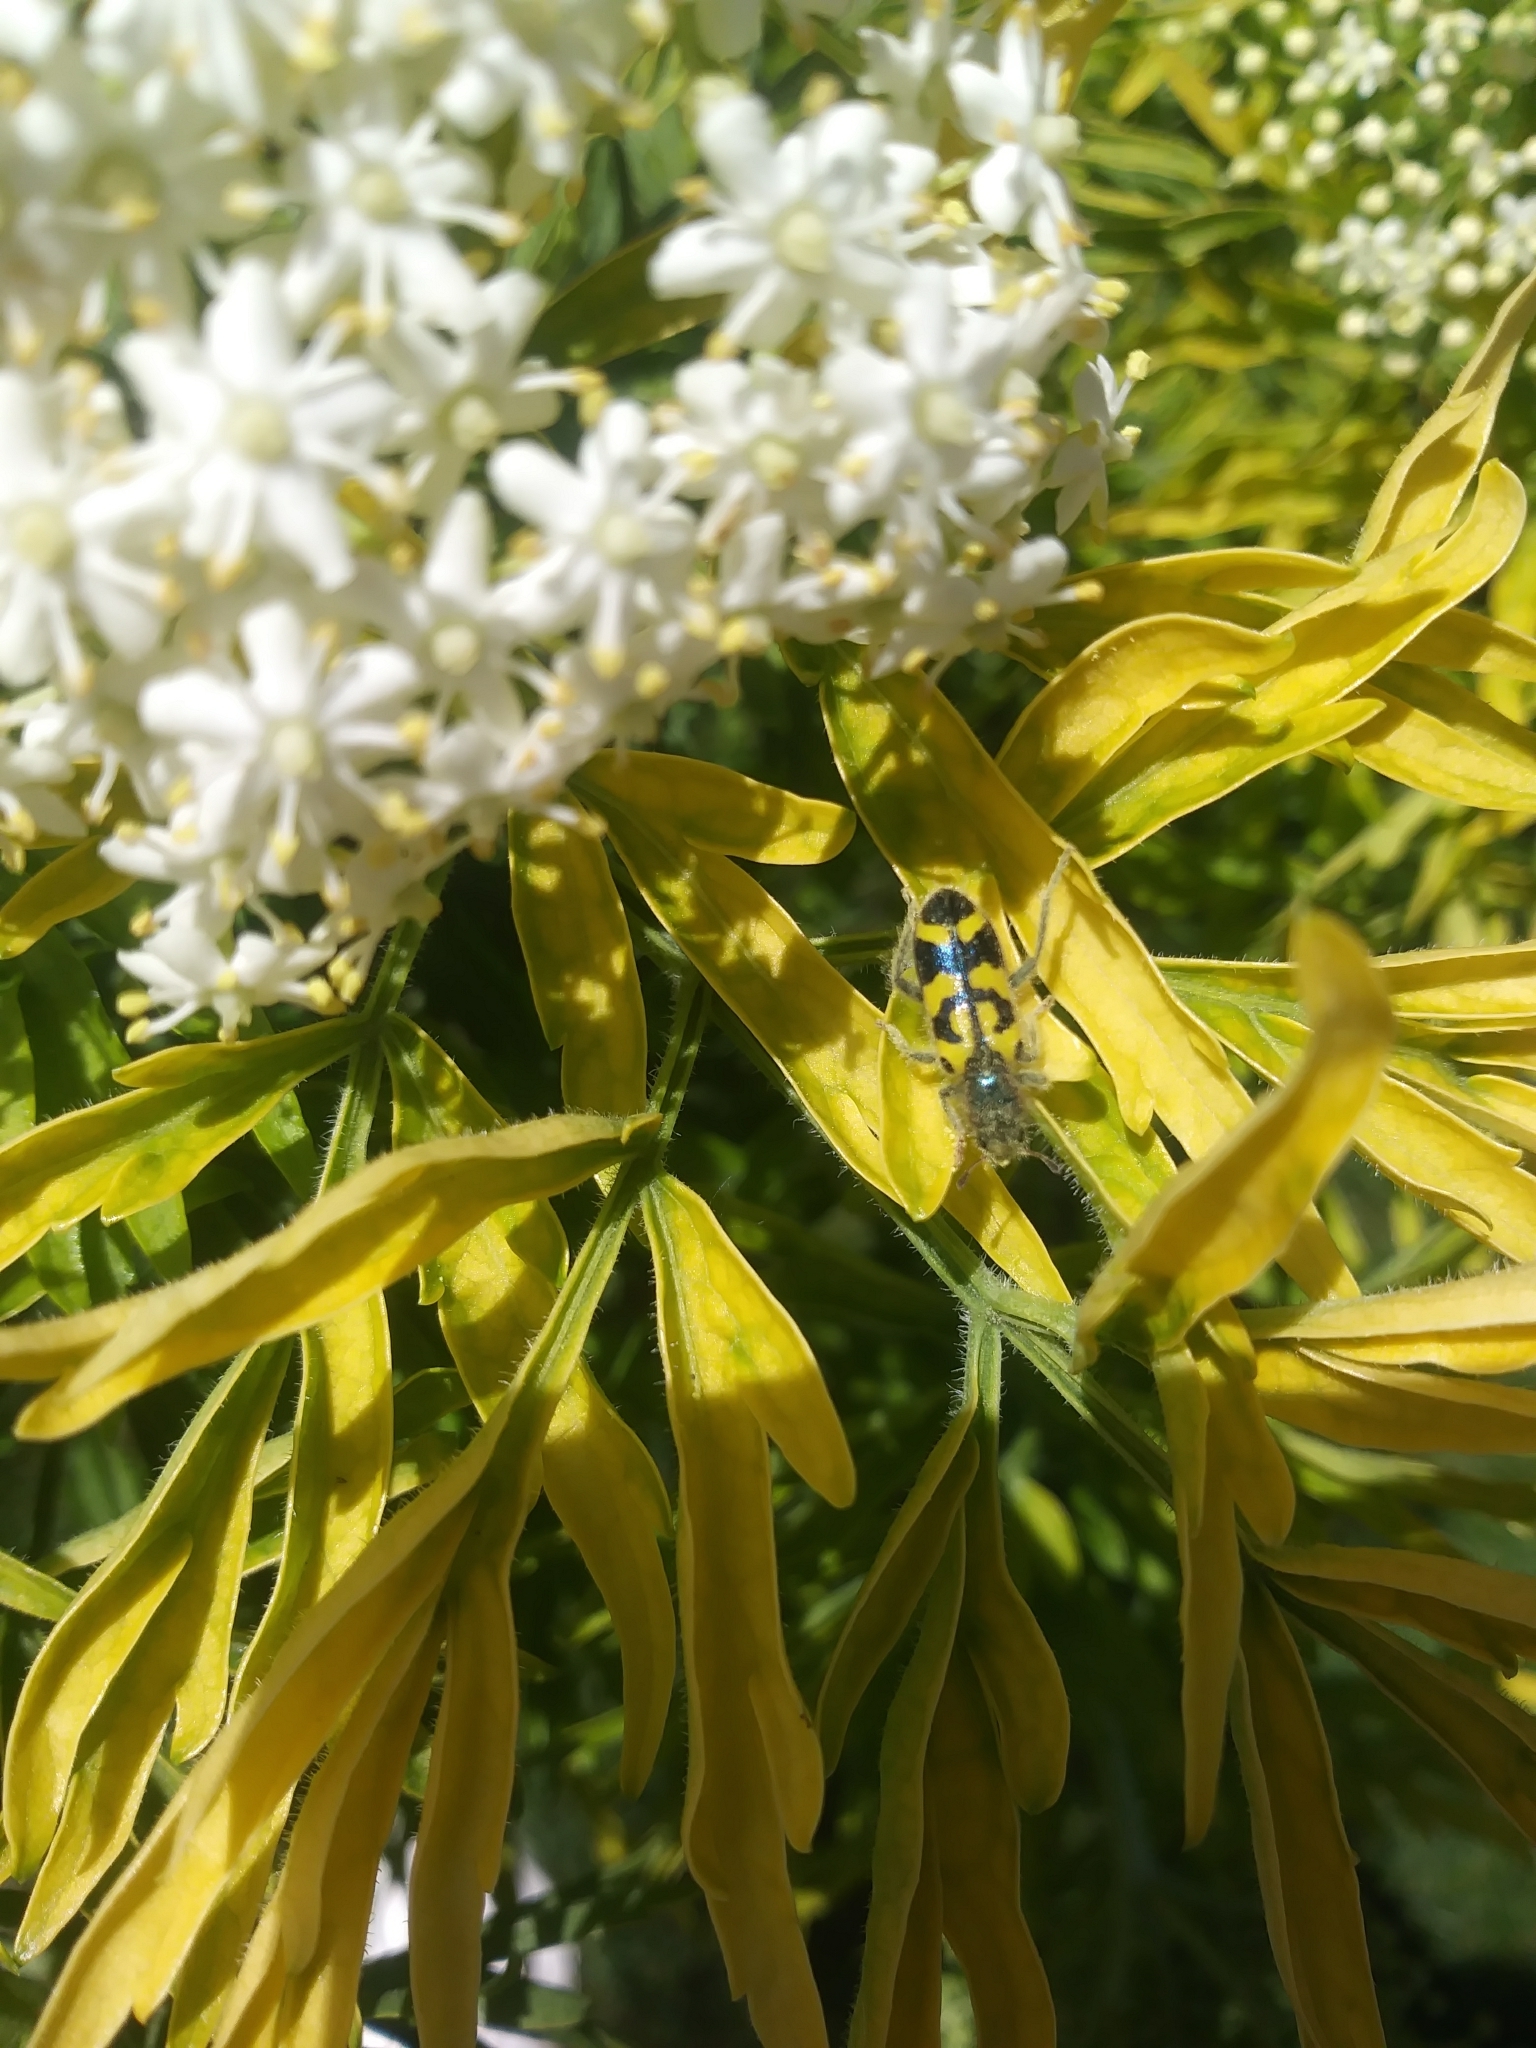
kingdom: Animalia
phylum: Arthropoda
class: Insecta
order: Coleoptera
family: Cleridae
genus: Trichodes
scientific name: Trichodes ornatus
